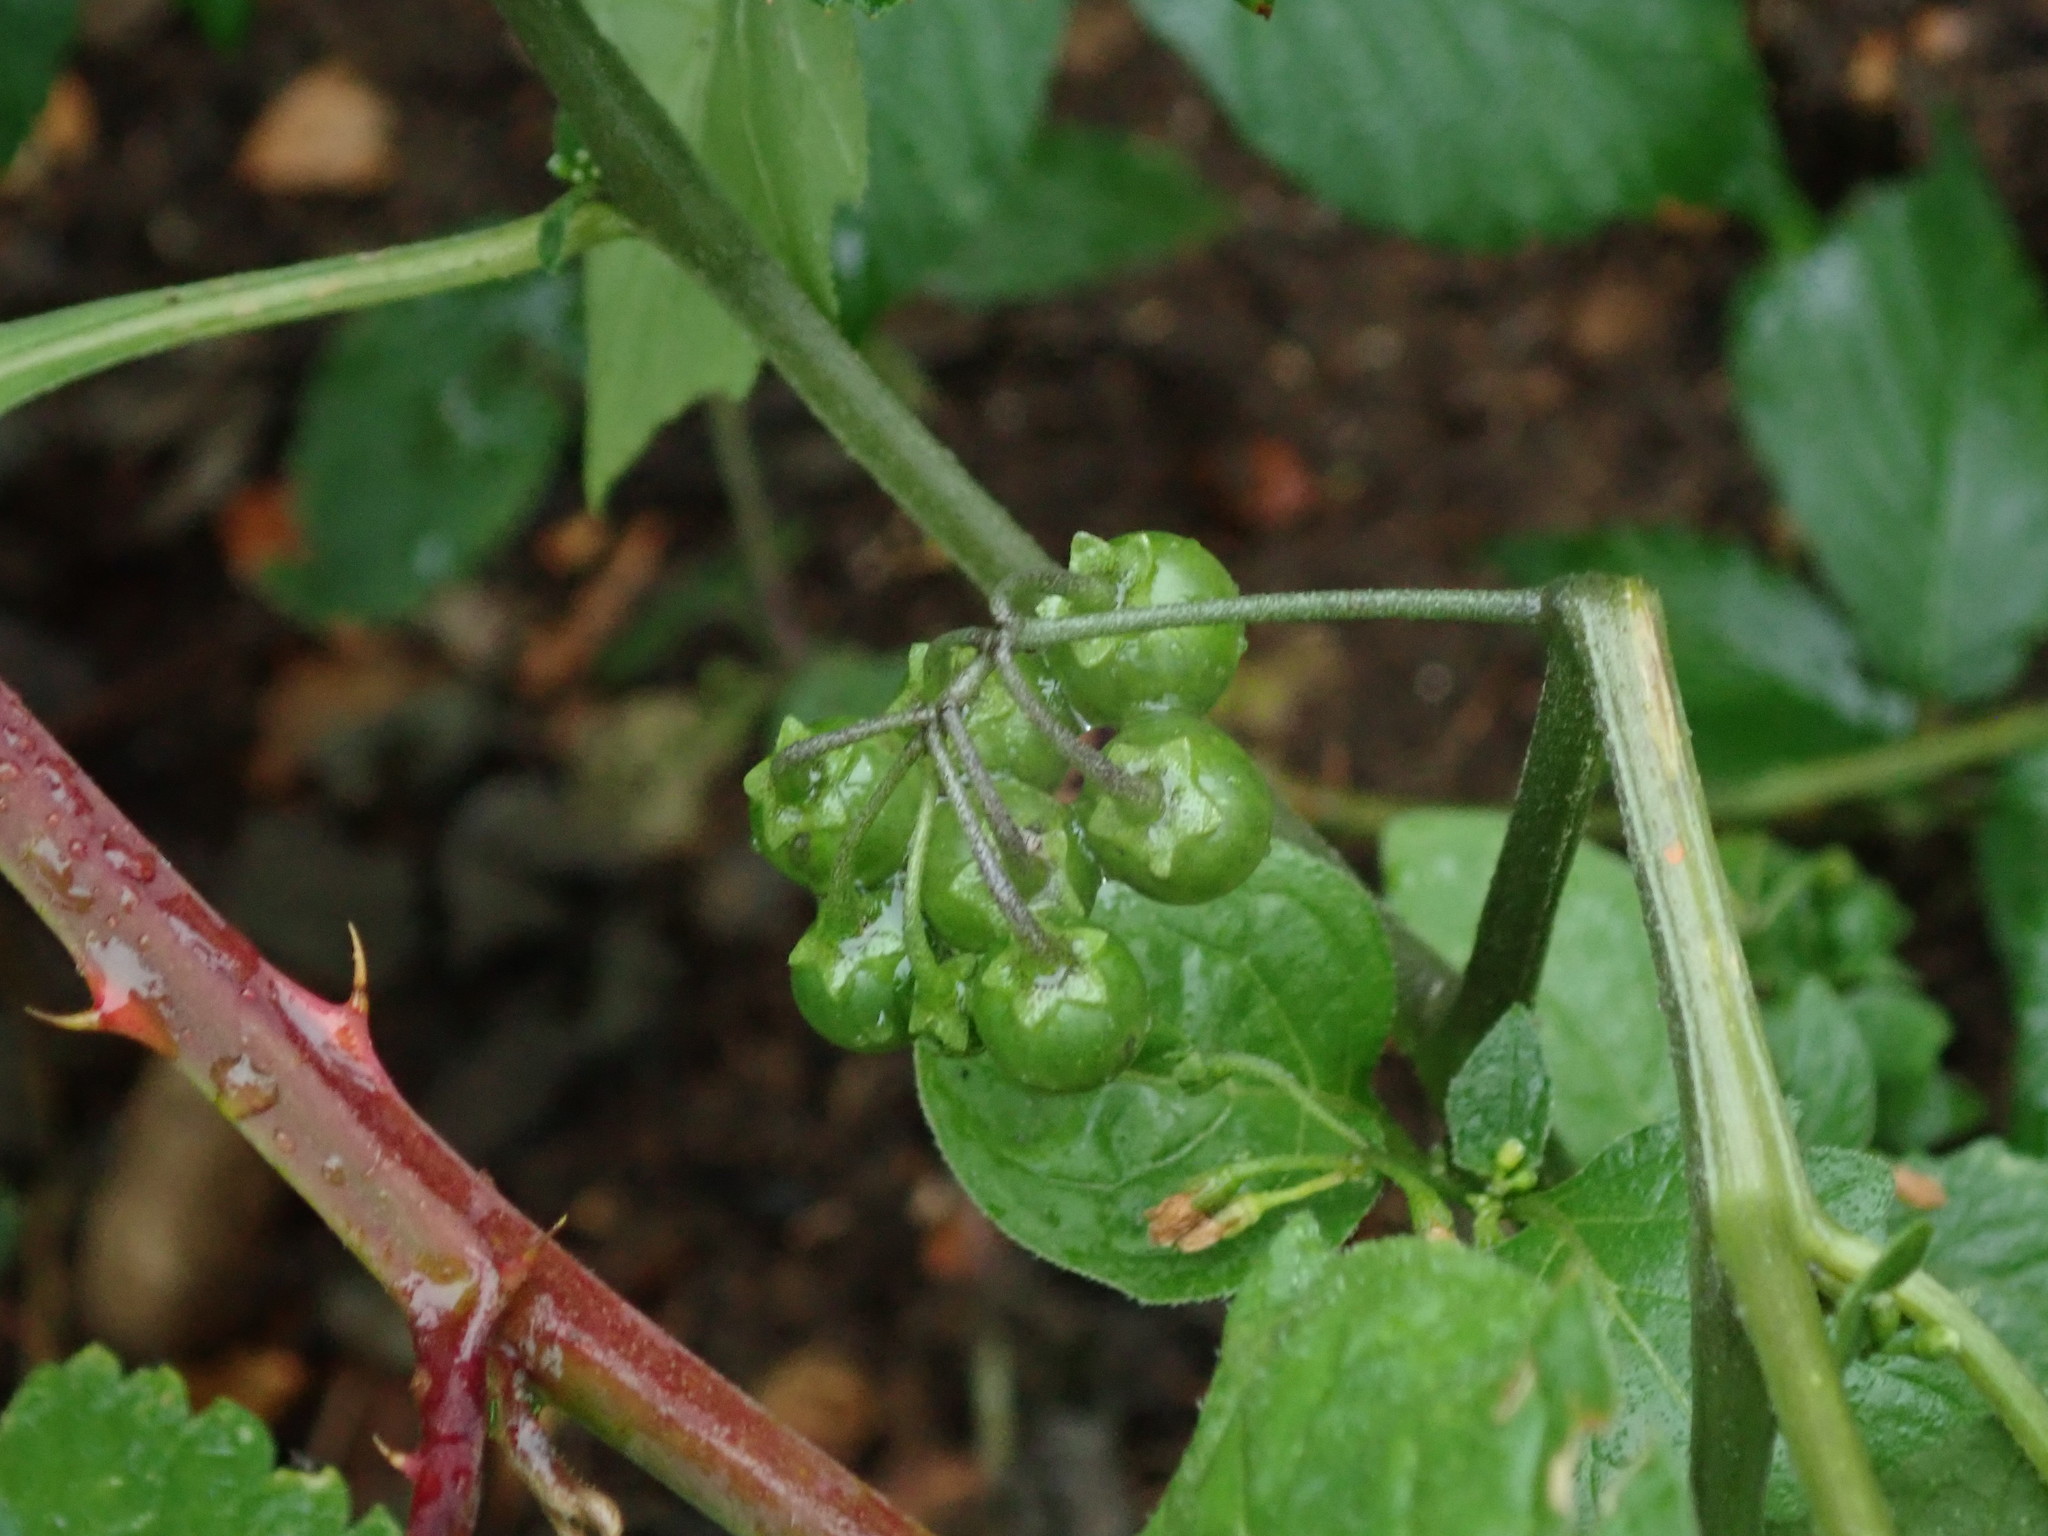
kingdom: Plantae
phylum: Tracheophyta
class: Magnoliopsida
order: Solanales
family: Solanaceae
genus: Solanum
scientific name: Solanum nigrum
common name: Black nightshade
